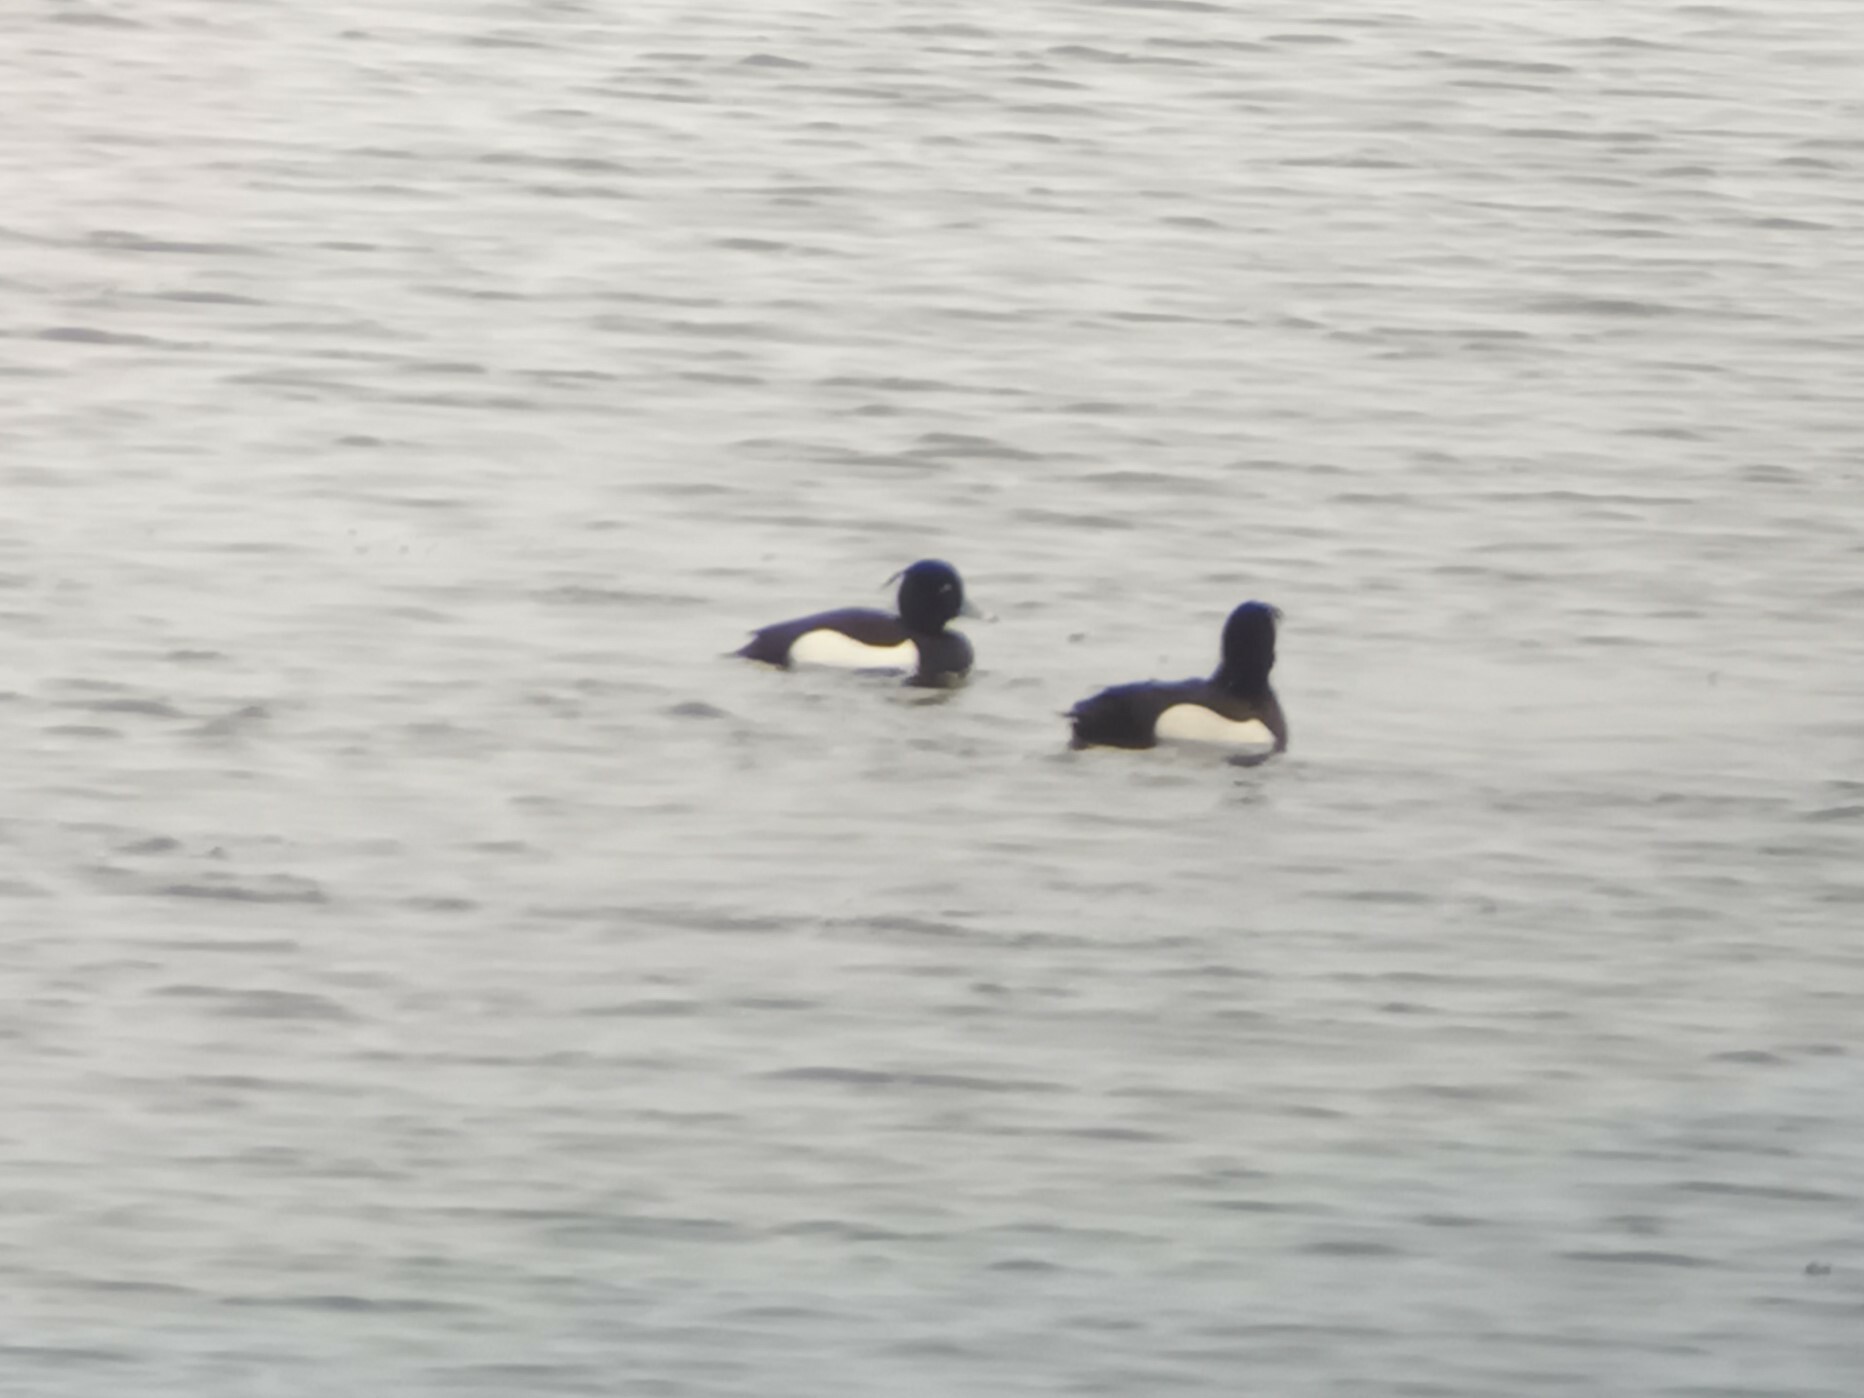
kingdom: Animalia
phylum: Chordata
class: Aves
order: Anseriformes
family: Anatidae
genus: Aythya
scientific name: Aythya fuligula
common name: Tufted duck
